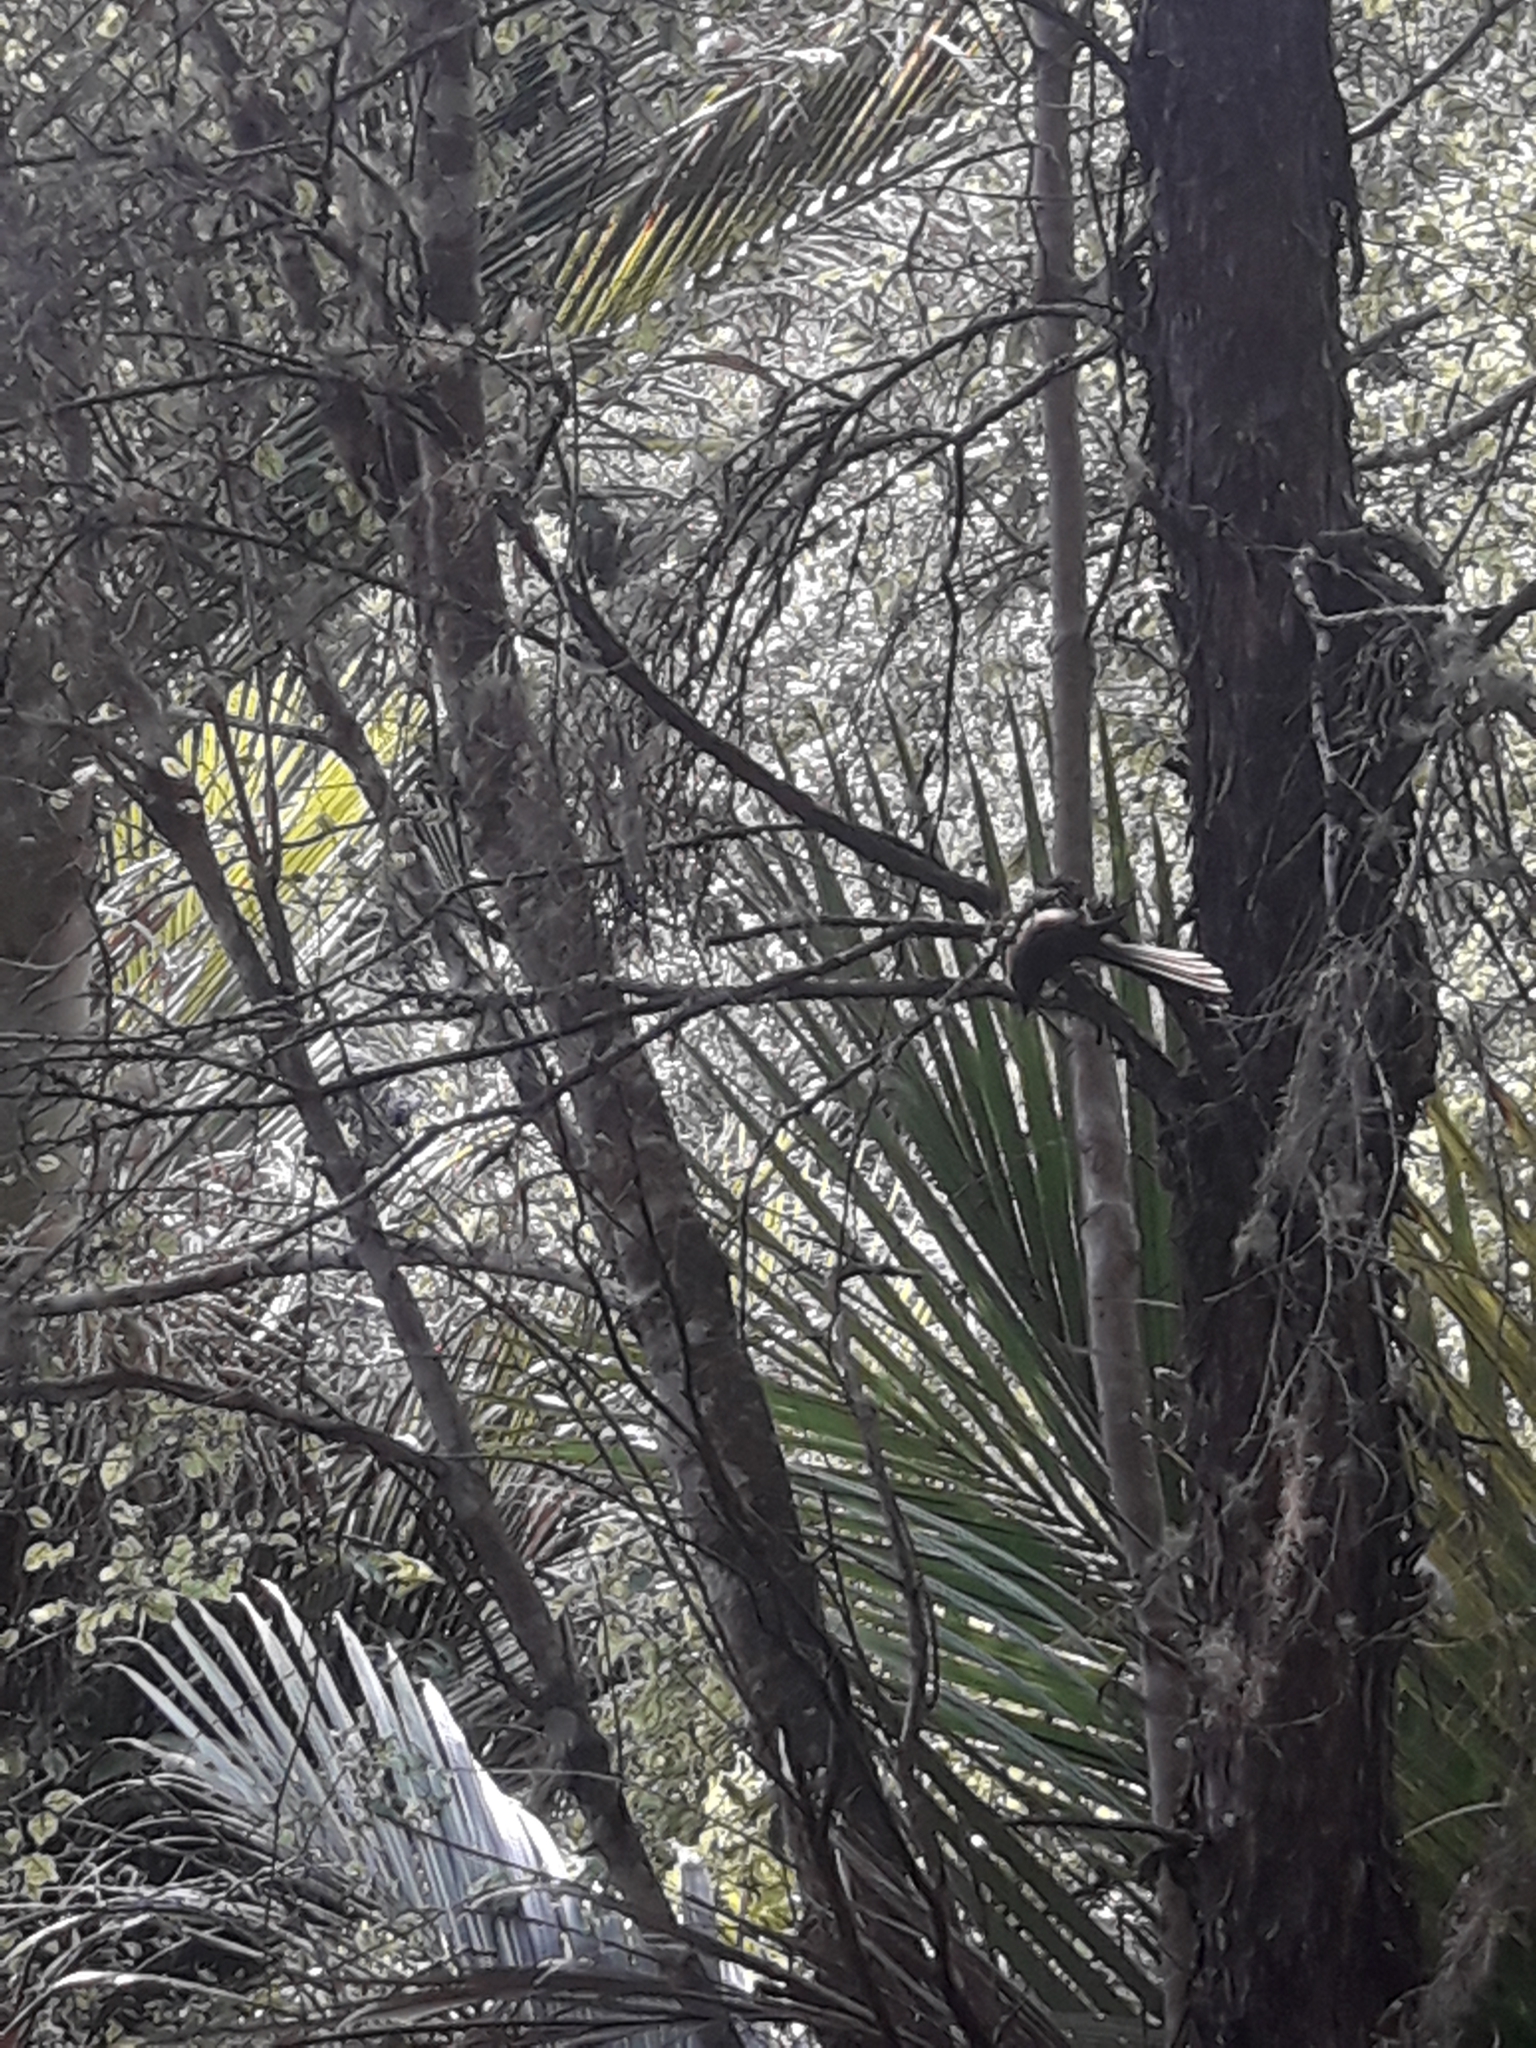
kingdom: Animalia
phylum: Chordata
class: Aves
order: Passeriformes
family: Rhipiduridae
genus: Rhipidura
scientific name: Rhipidura fuliginosa
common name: New zealand fantail
